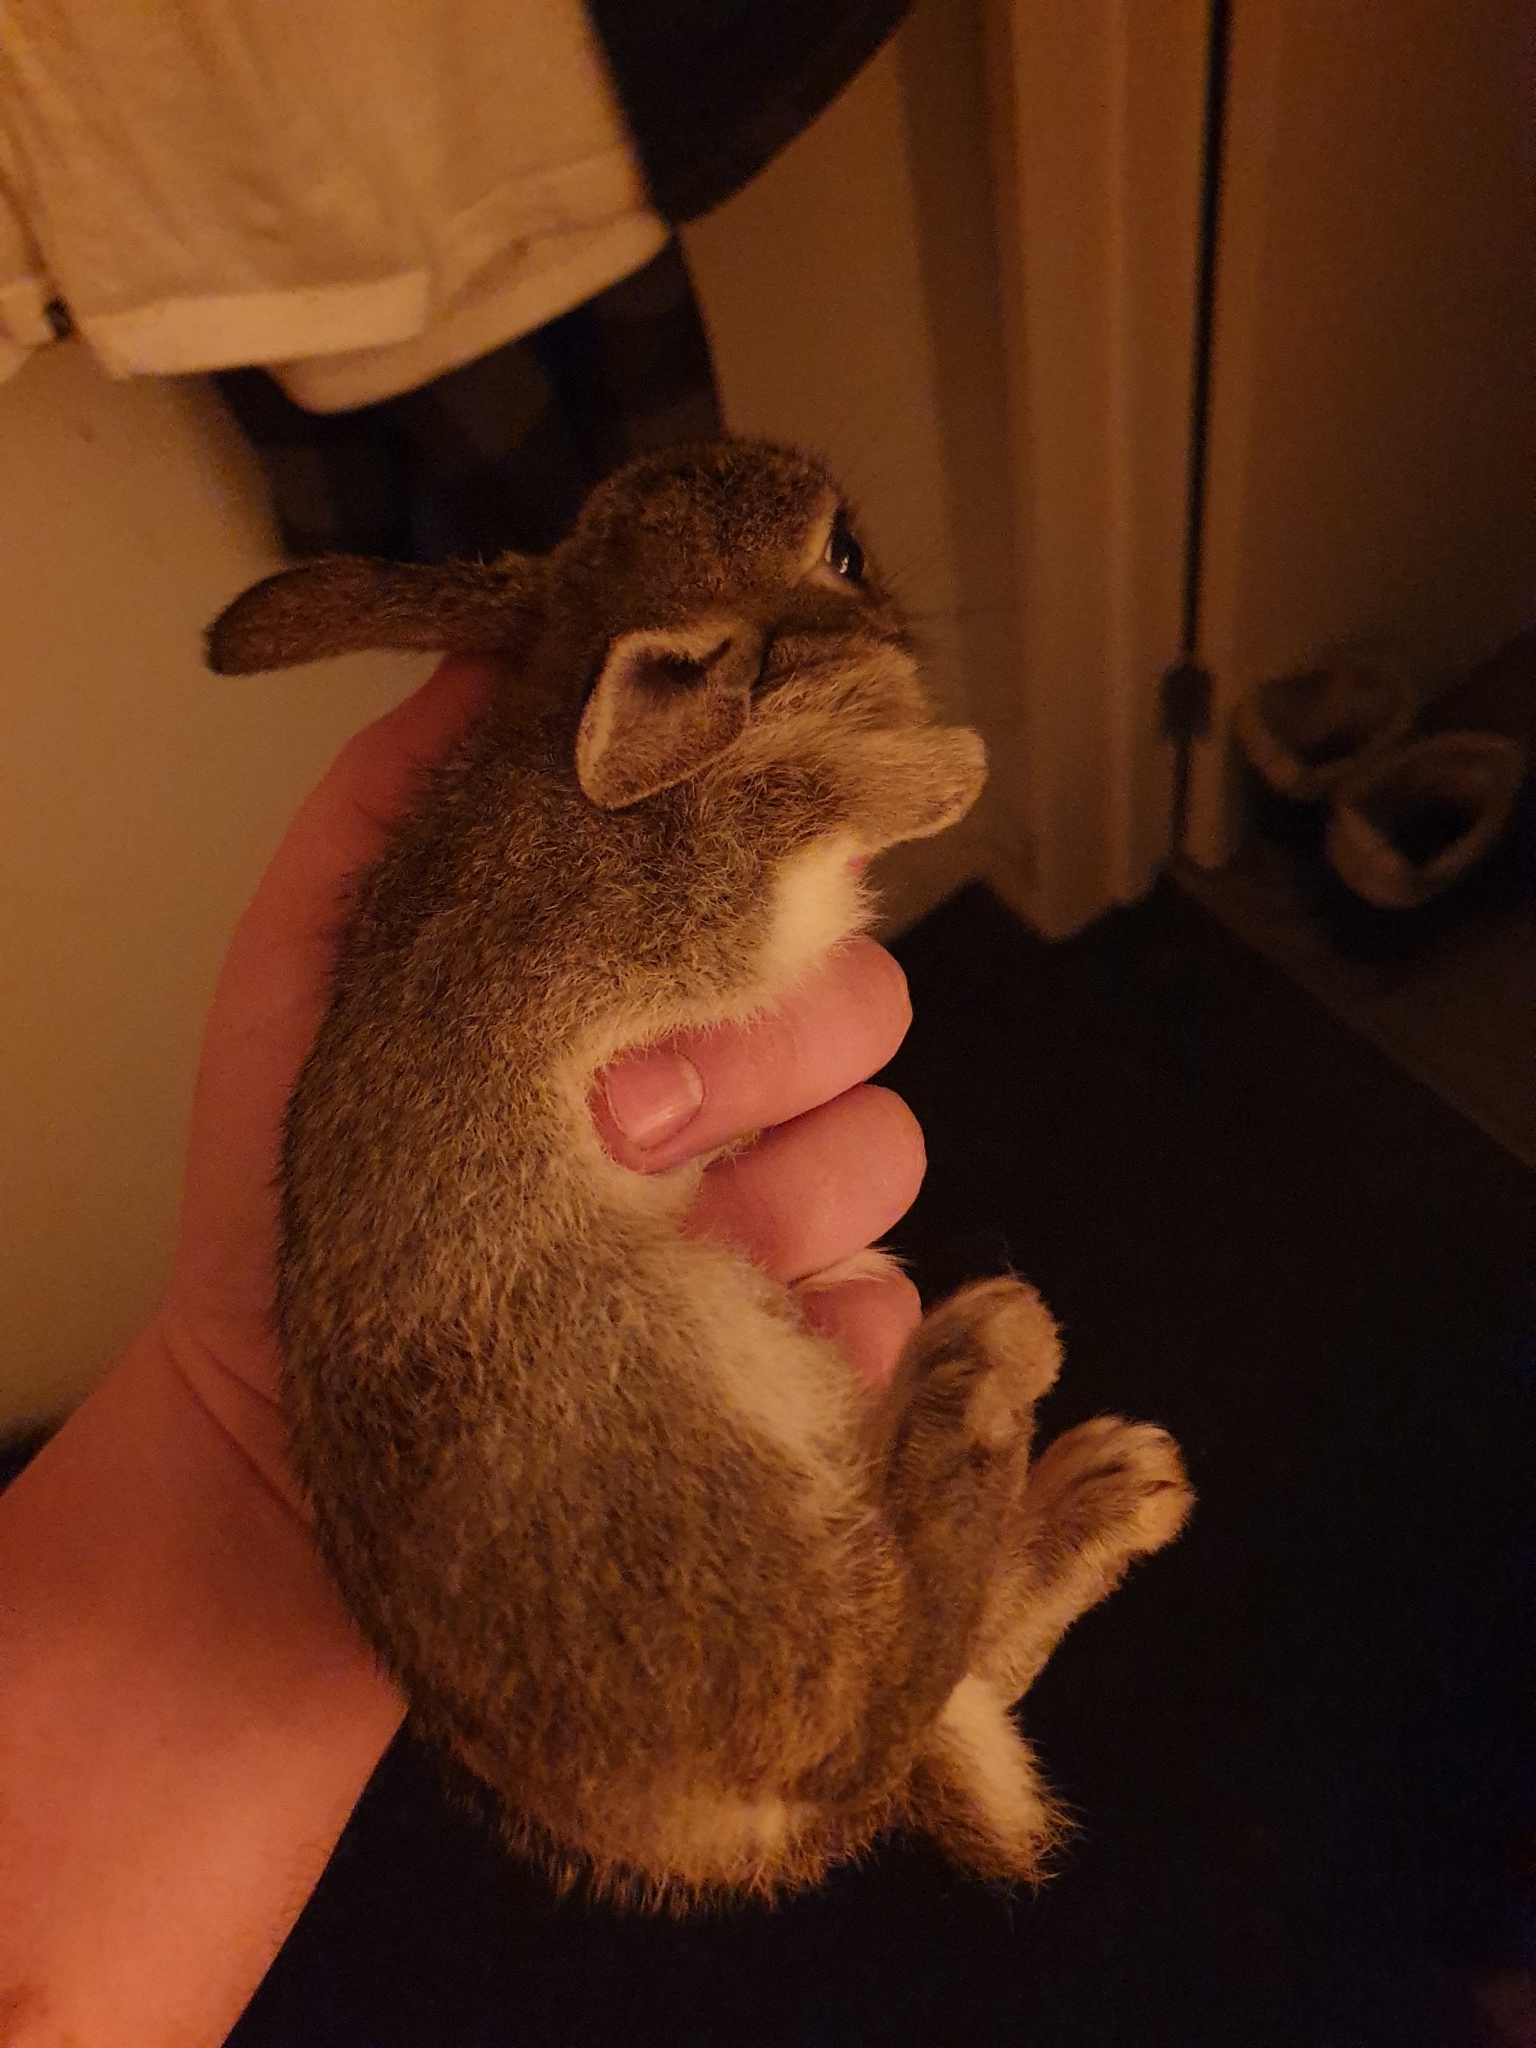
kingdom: Animalia
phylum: Chordata
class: Mammalia
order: Lagomorpha
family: Leporidae
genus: Oryctolagus
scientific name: Oryctolagus cuniculus
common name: European rabbit
